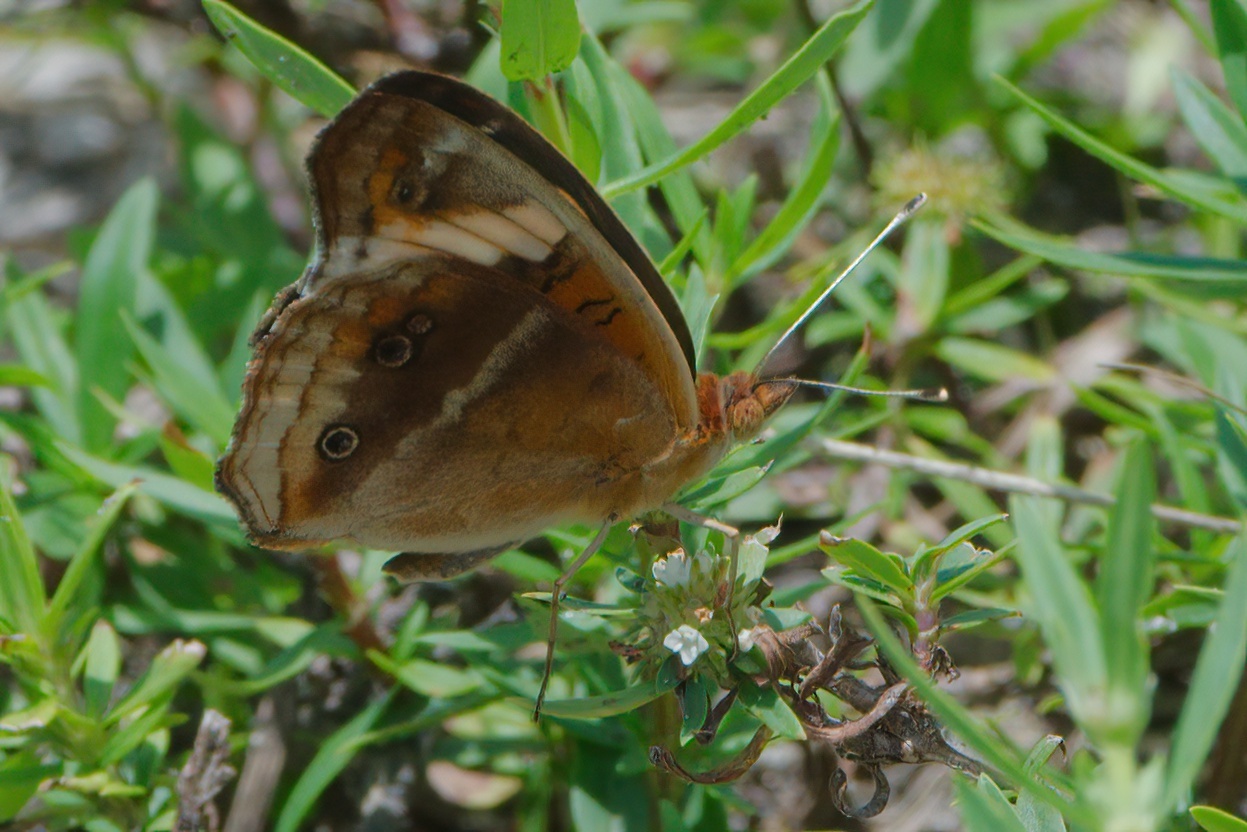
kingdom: Animalia
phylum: Arthropoda
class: Insecta
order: Lepidoptera
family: Nymphalidae
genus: Junonia
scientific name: Junonia lavinia
